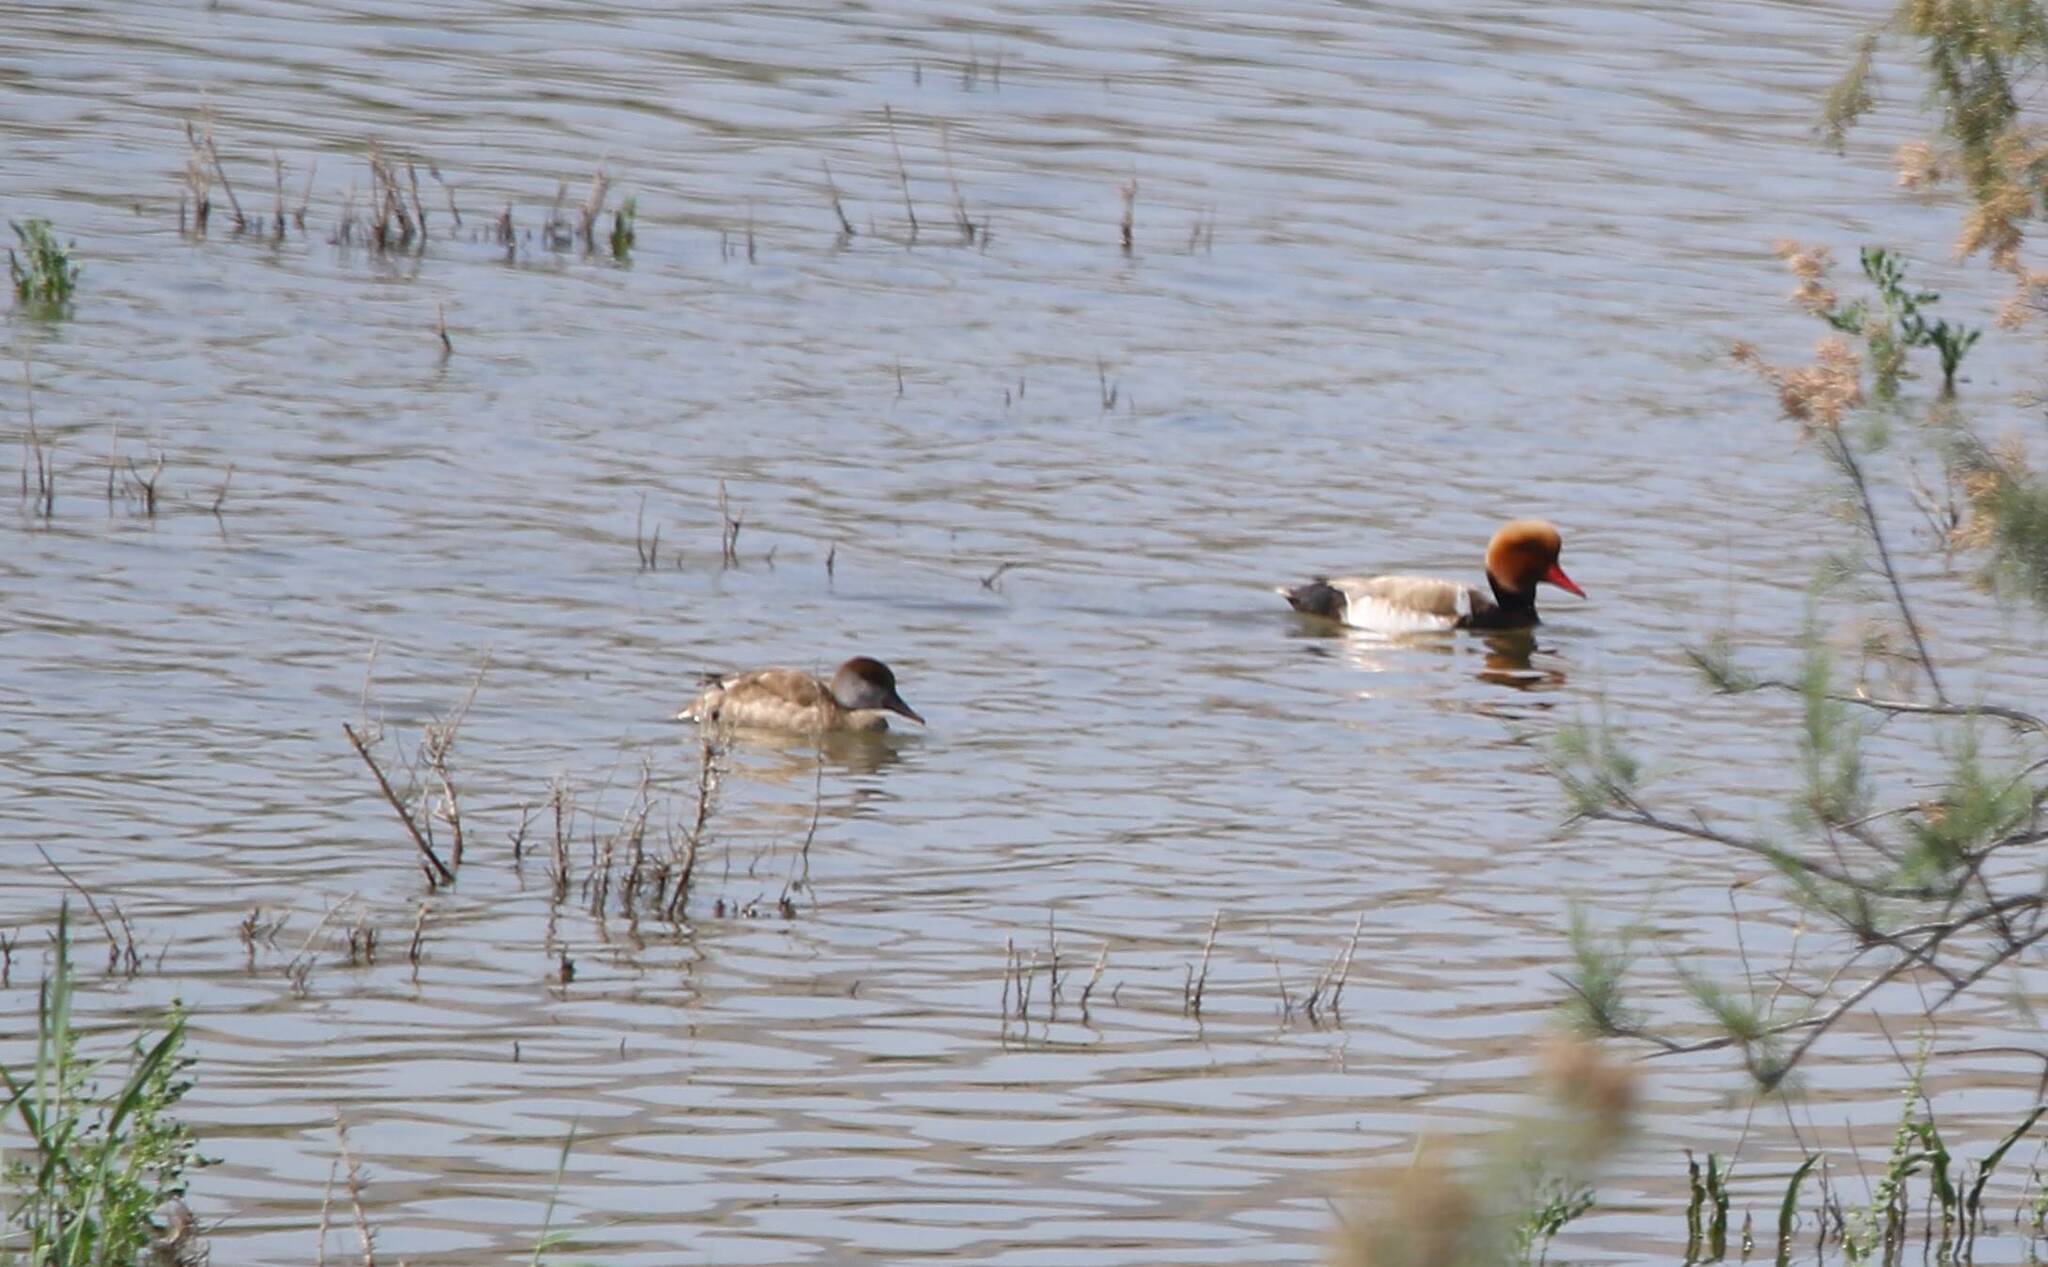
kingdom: Animalia
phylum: Chordata
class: Aves
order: Anseriformes
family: Anatidae
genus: Netta
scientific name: Netta rufina
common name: Red-crested pochard
